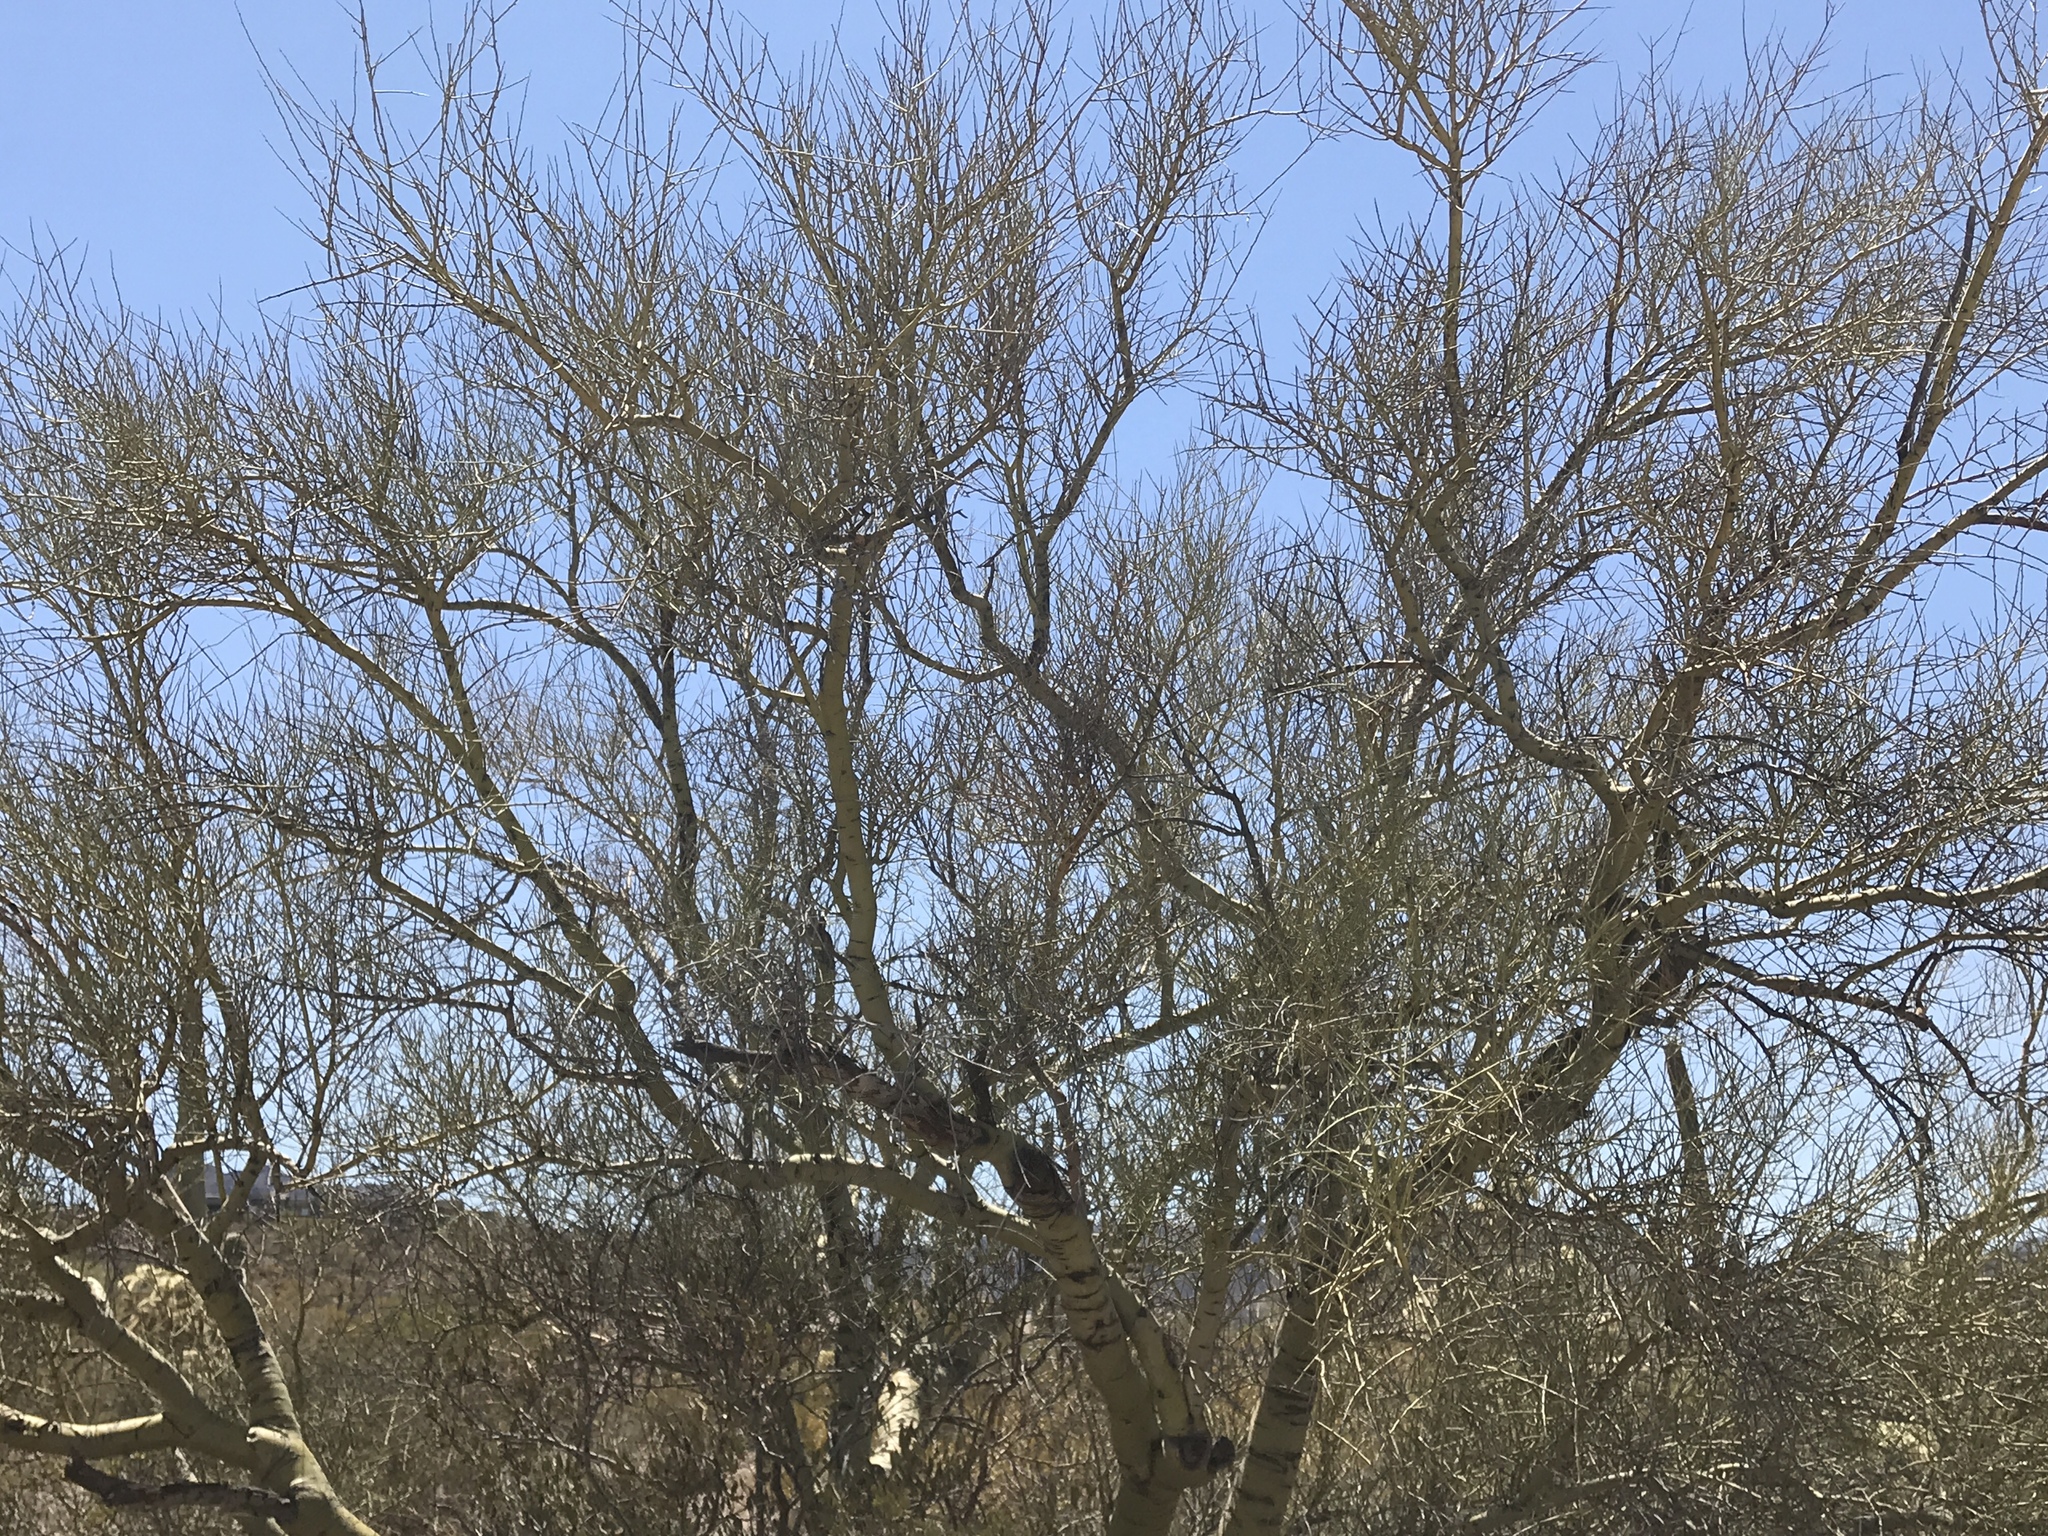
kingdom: Plantae
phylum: Tracheophyta
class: Magnoliopsida
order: Fabales
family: Fabaceae
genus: Parkinsonia
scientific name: Parkinsonia microphylla
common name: Yellow paloverde
